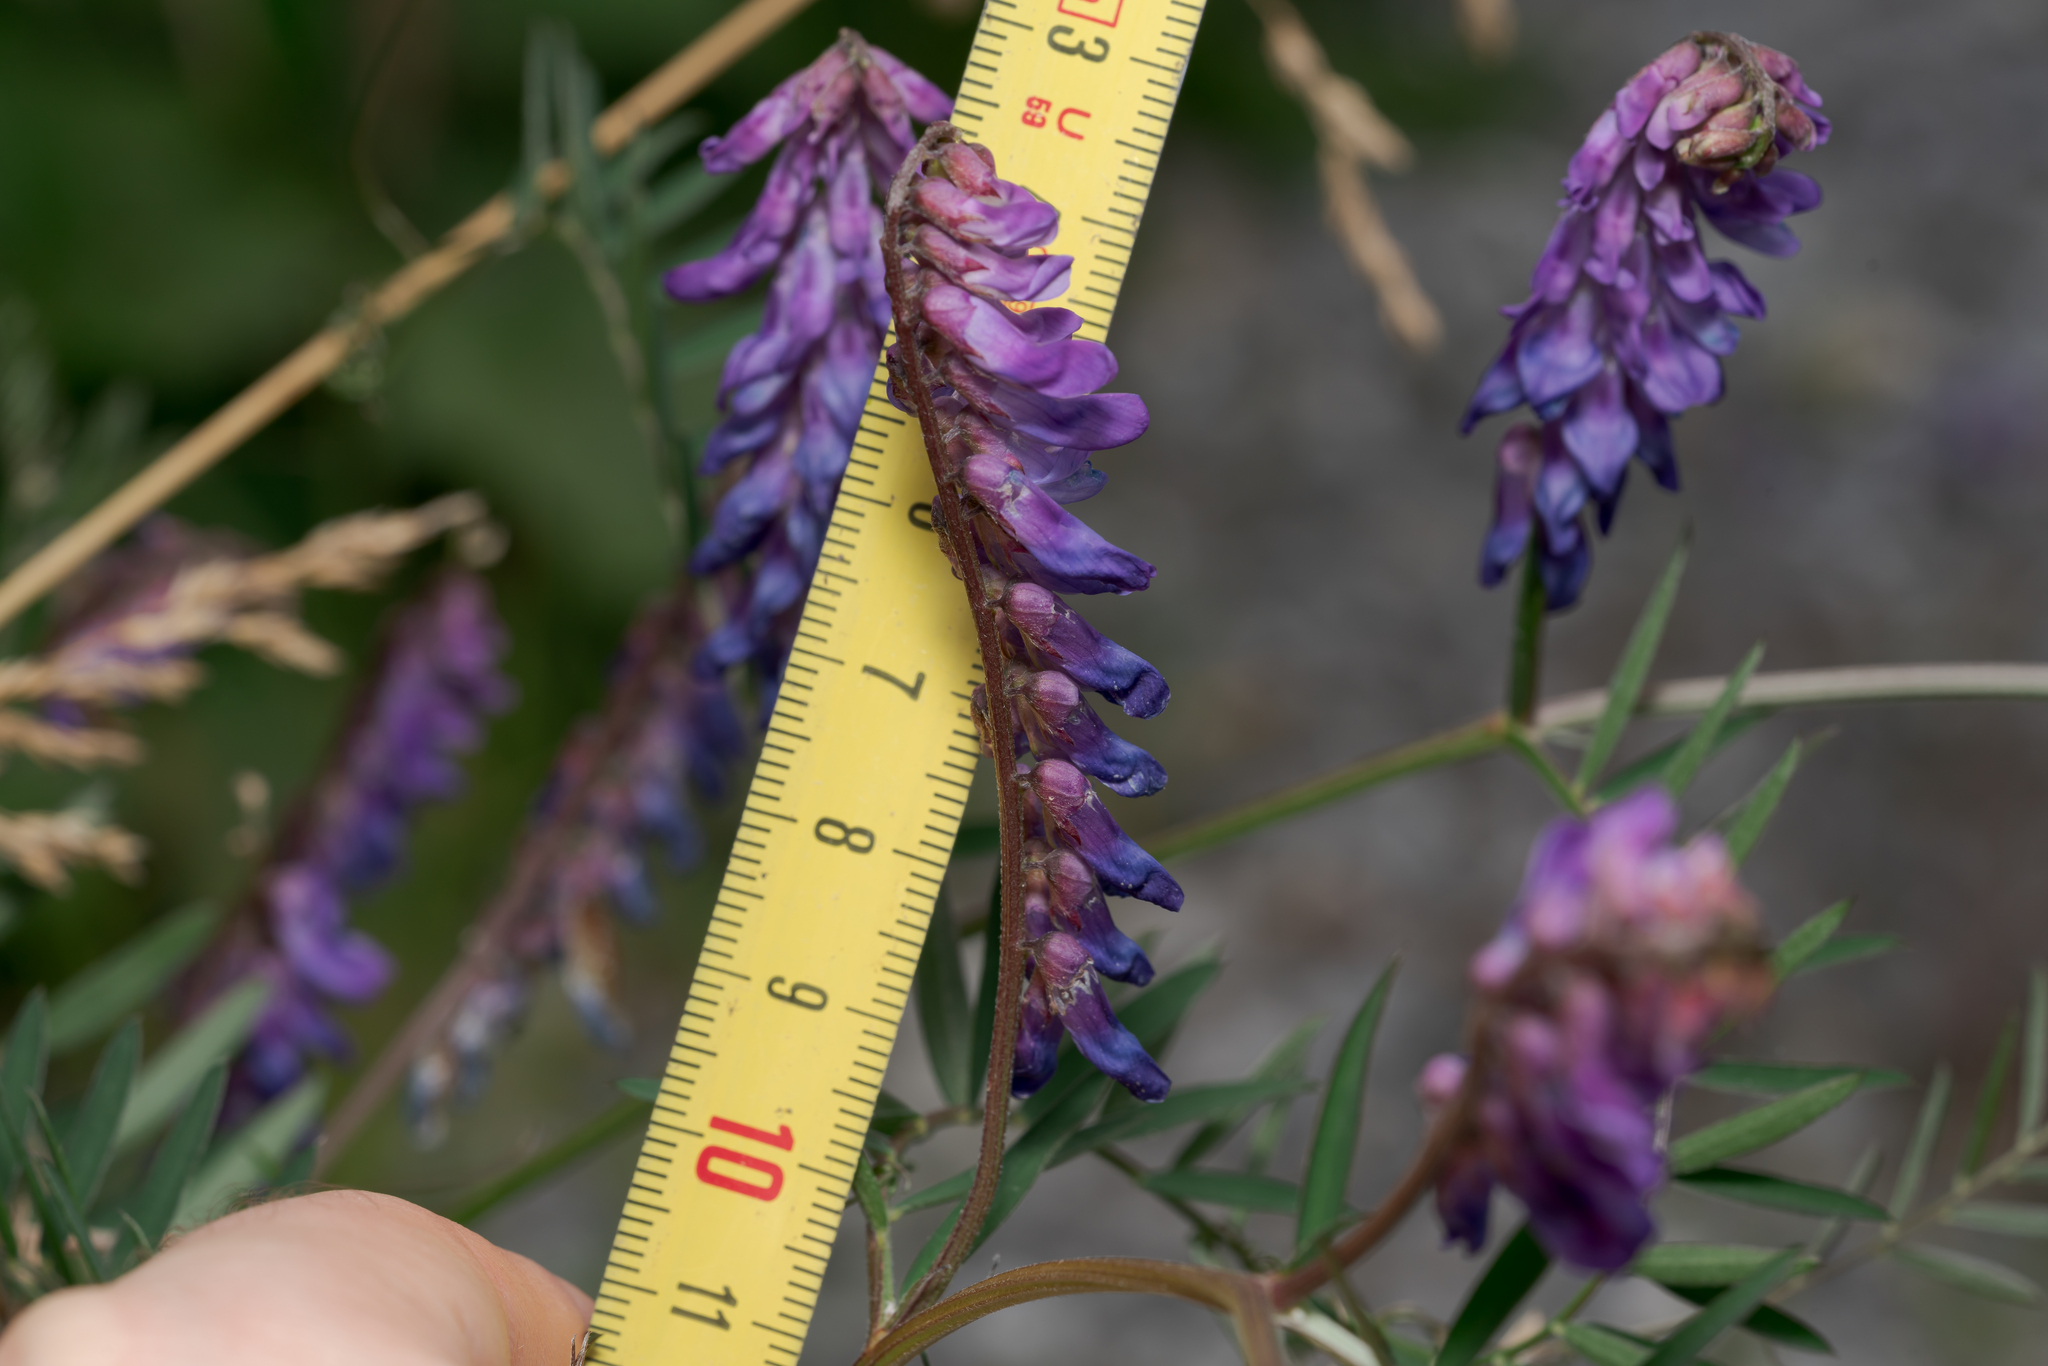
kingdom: Plantae
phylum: Tracheophyta
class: Magnoliopsida
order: Fabales
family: Fabaceae
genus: Vicia
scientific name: Vicia cracca
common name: Bird vetch
